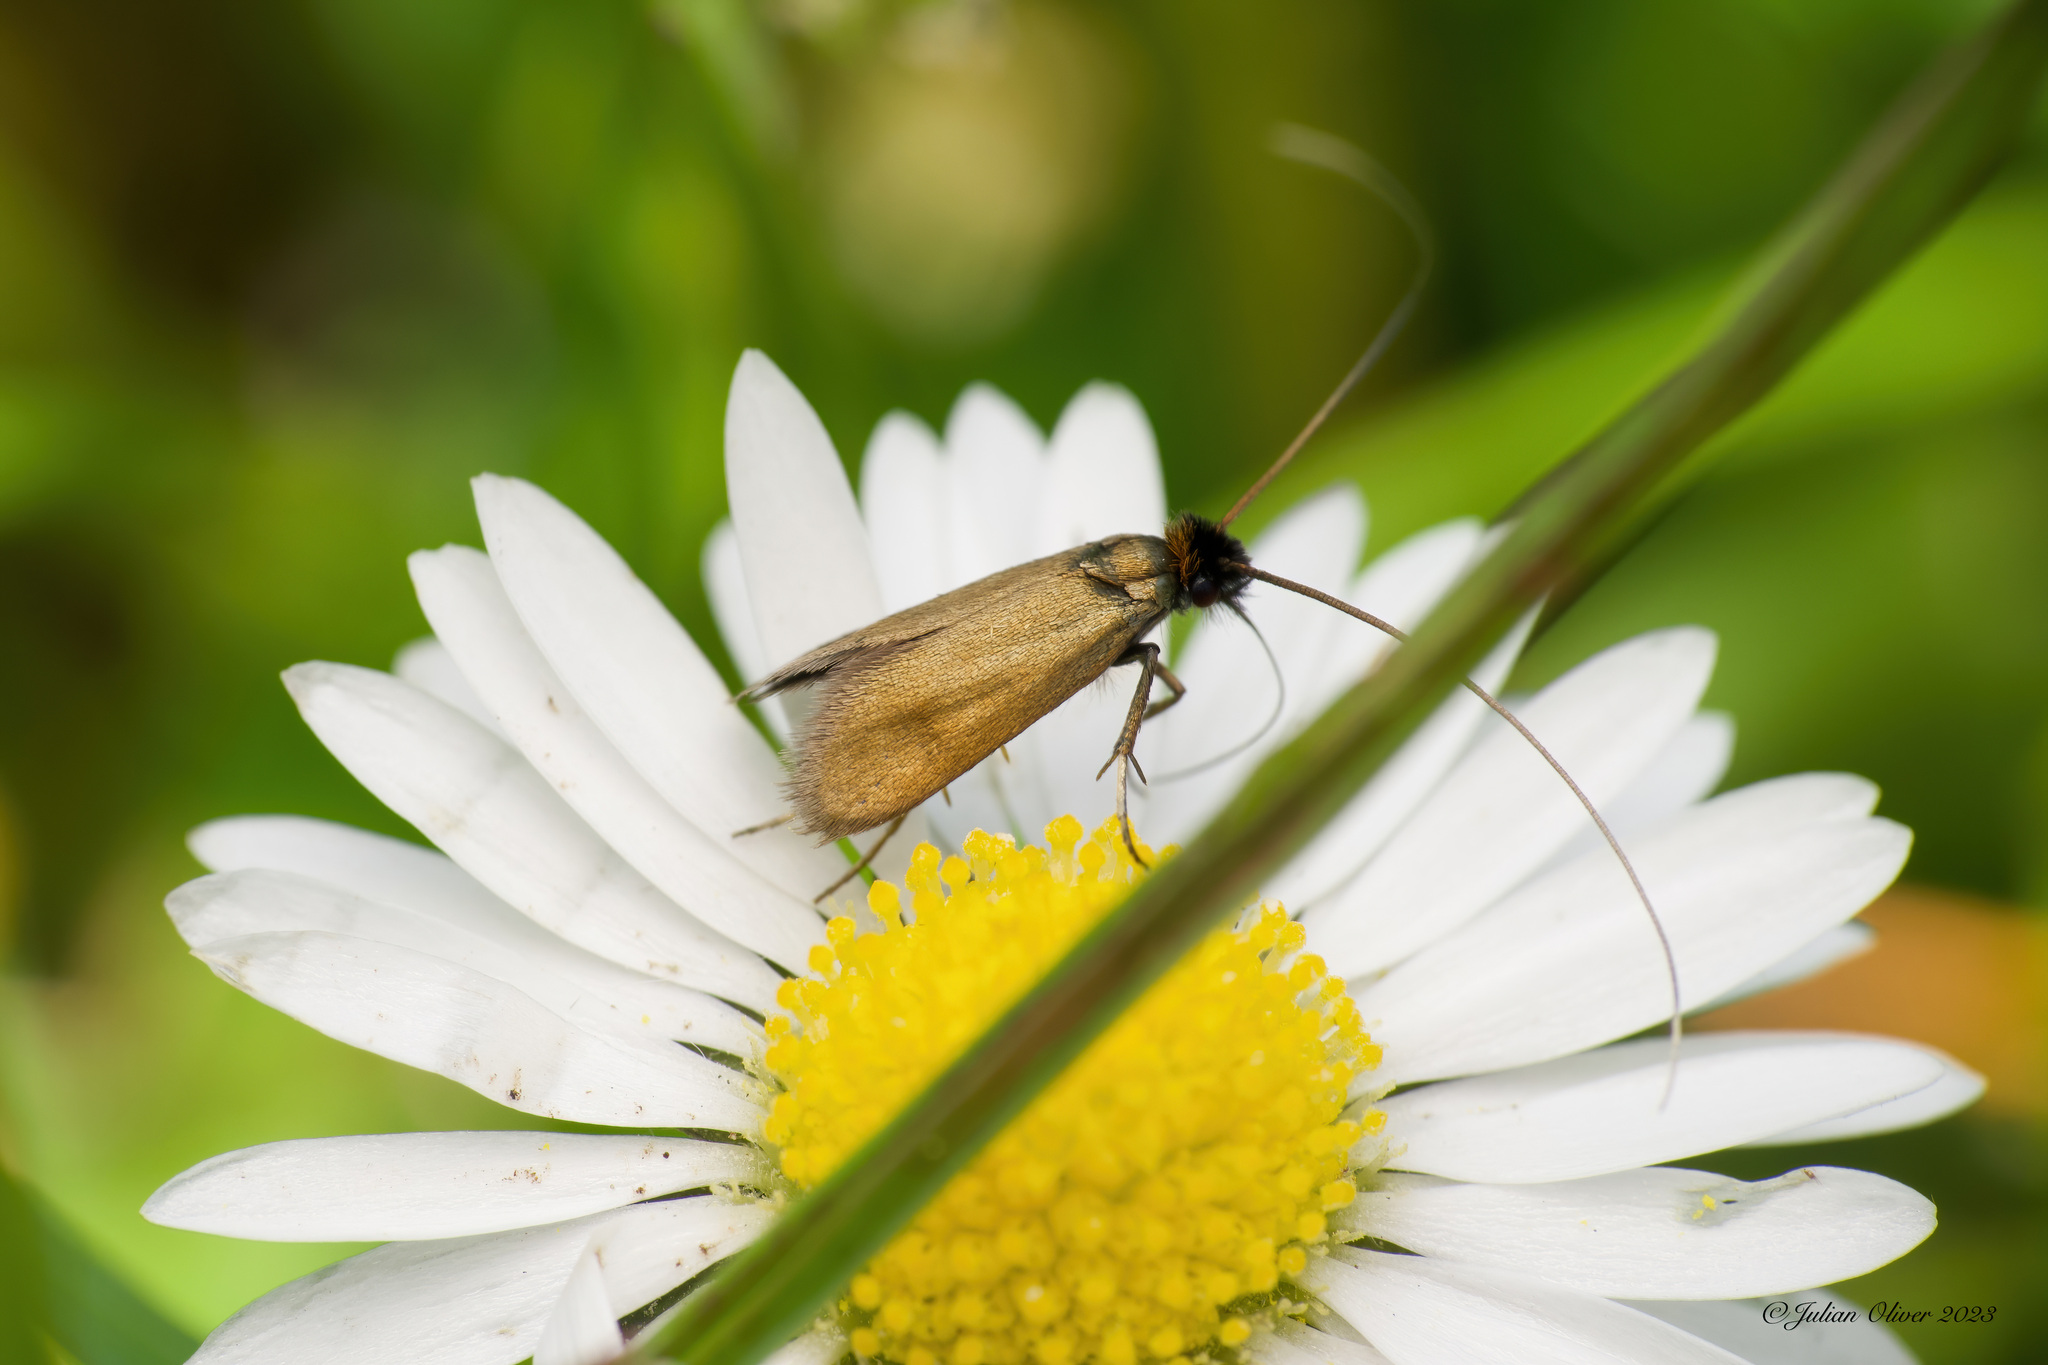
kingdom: Animalia
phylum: Arthropoda
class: Insecta
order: Lepidoptera
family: Adelidae
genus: Cauchas
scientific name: Cauchas rufimitrella
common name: Meadow long-horn
